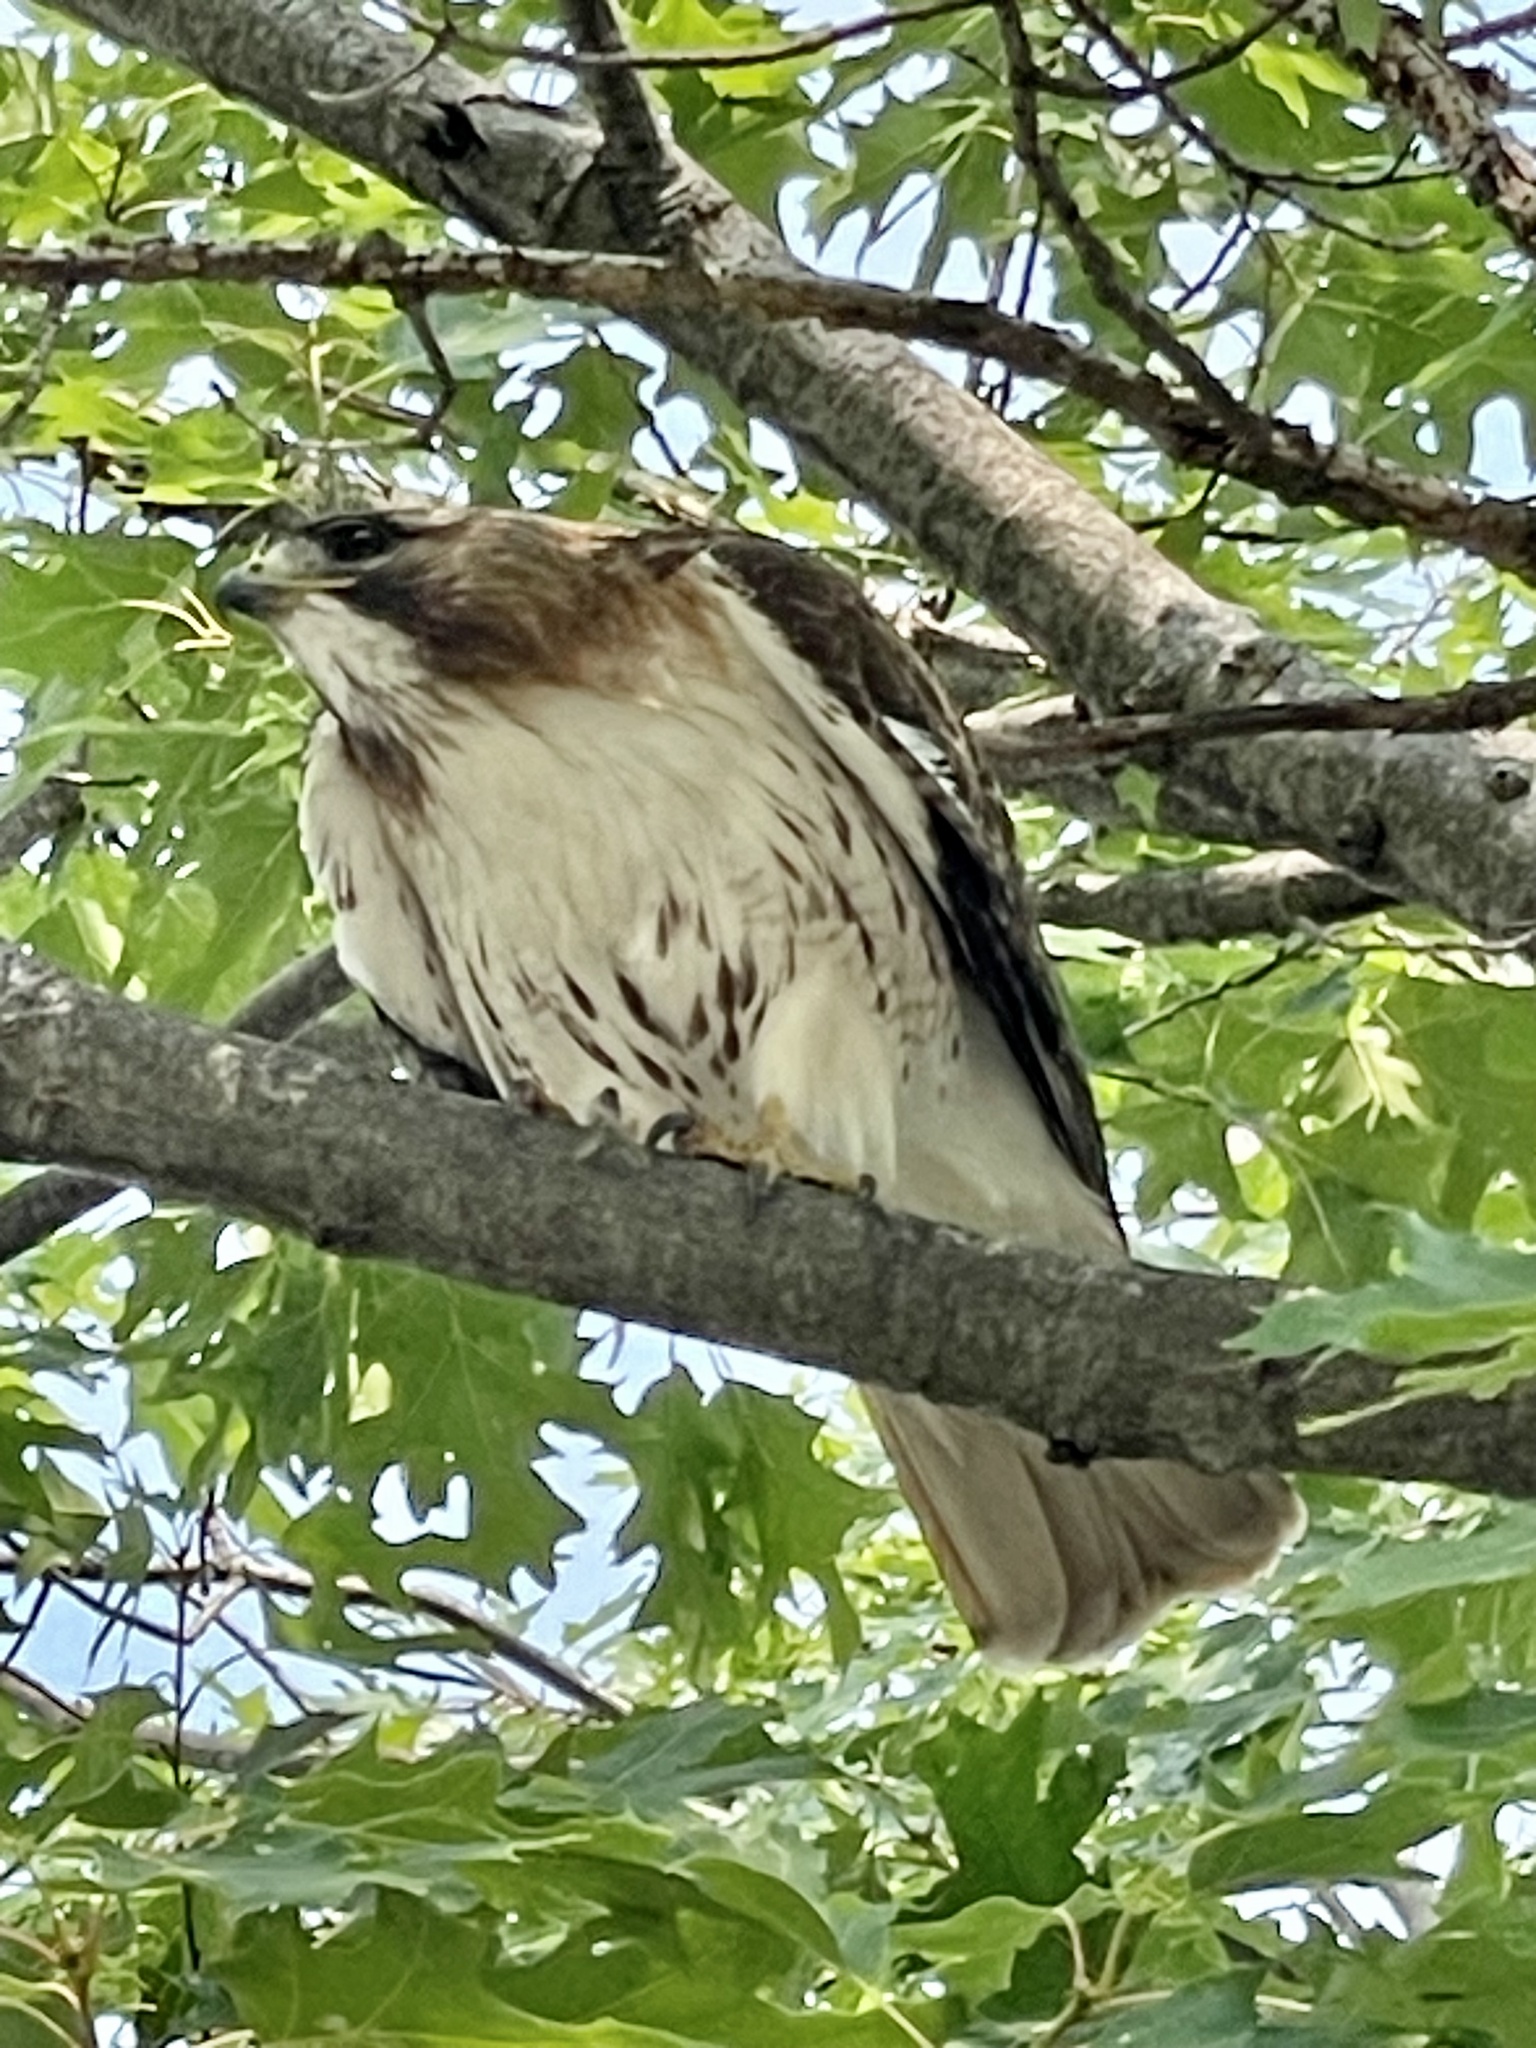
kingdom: Animalia
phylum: Chordata
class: Aves
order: Accipitriformes
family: Accipitridae
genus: Buteo
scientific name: Buteo jamaicensis
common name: Red-tailed hawk
